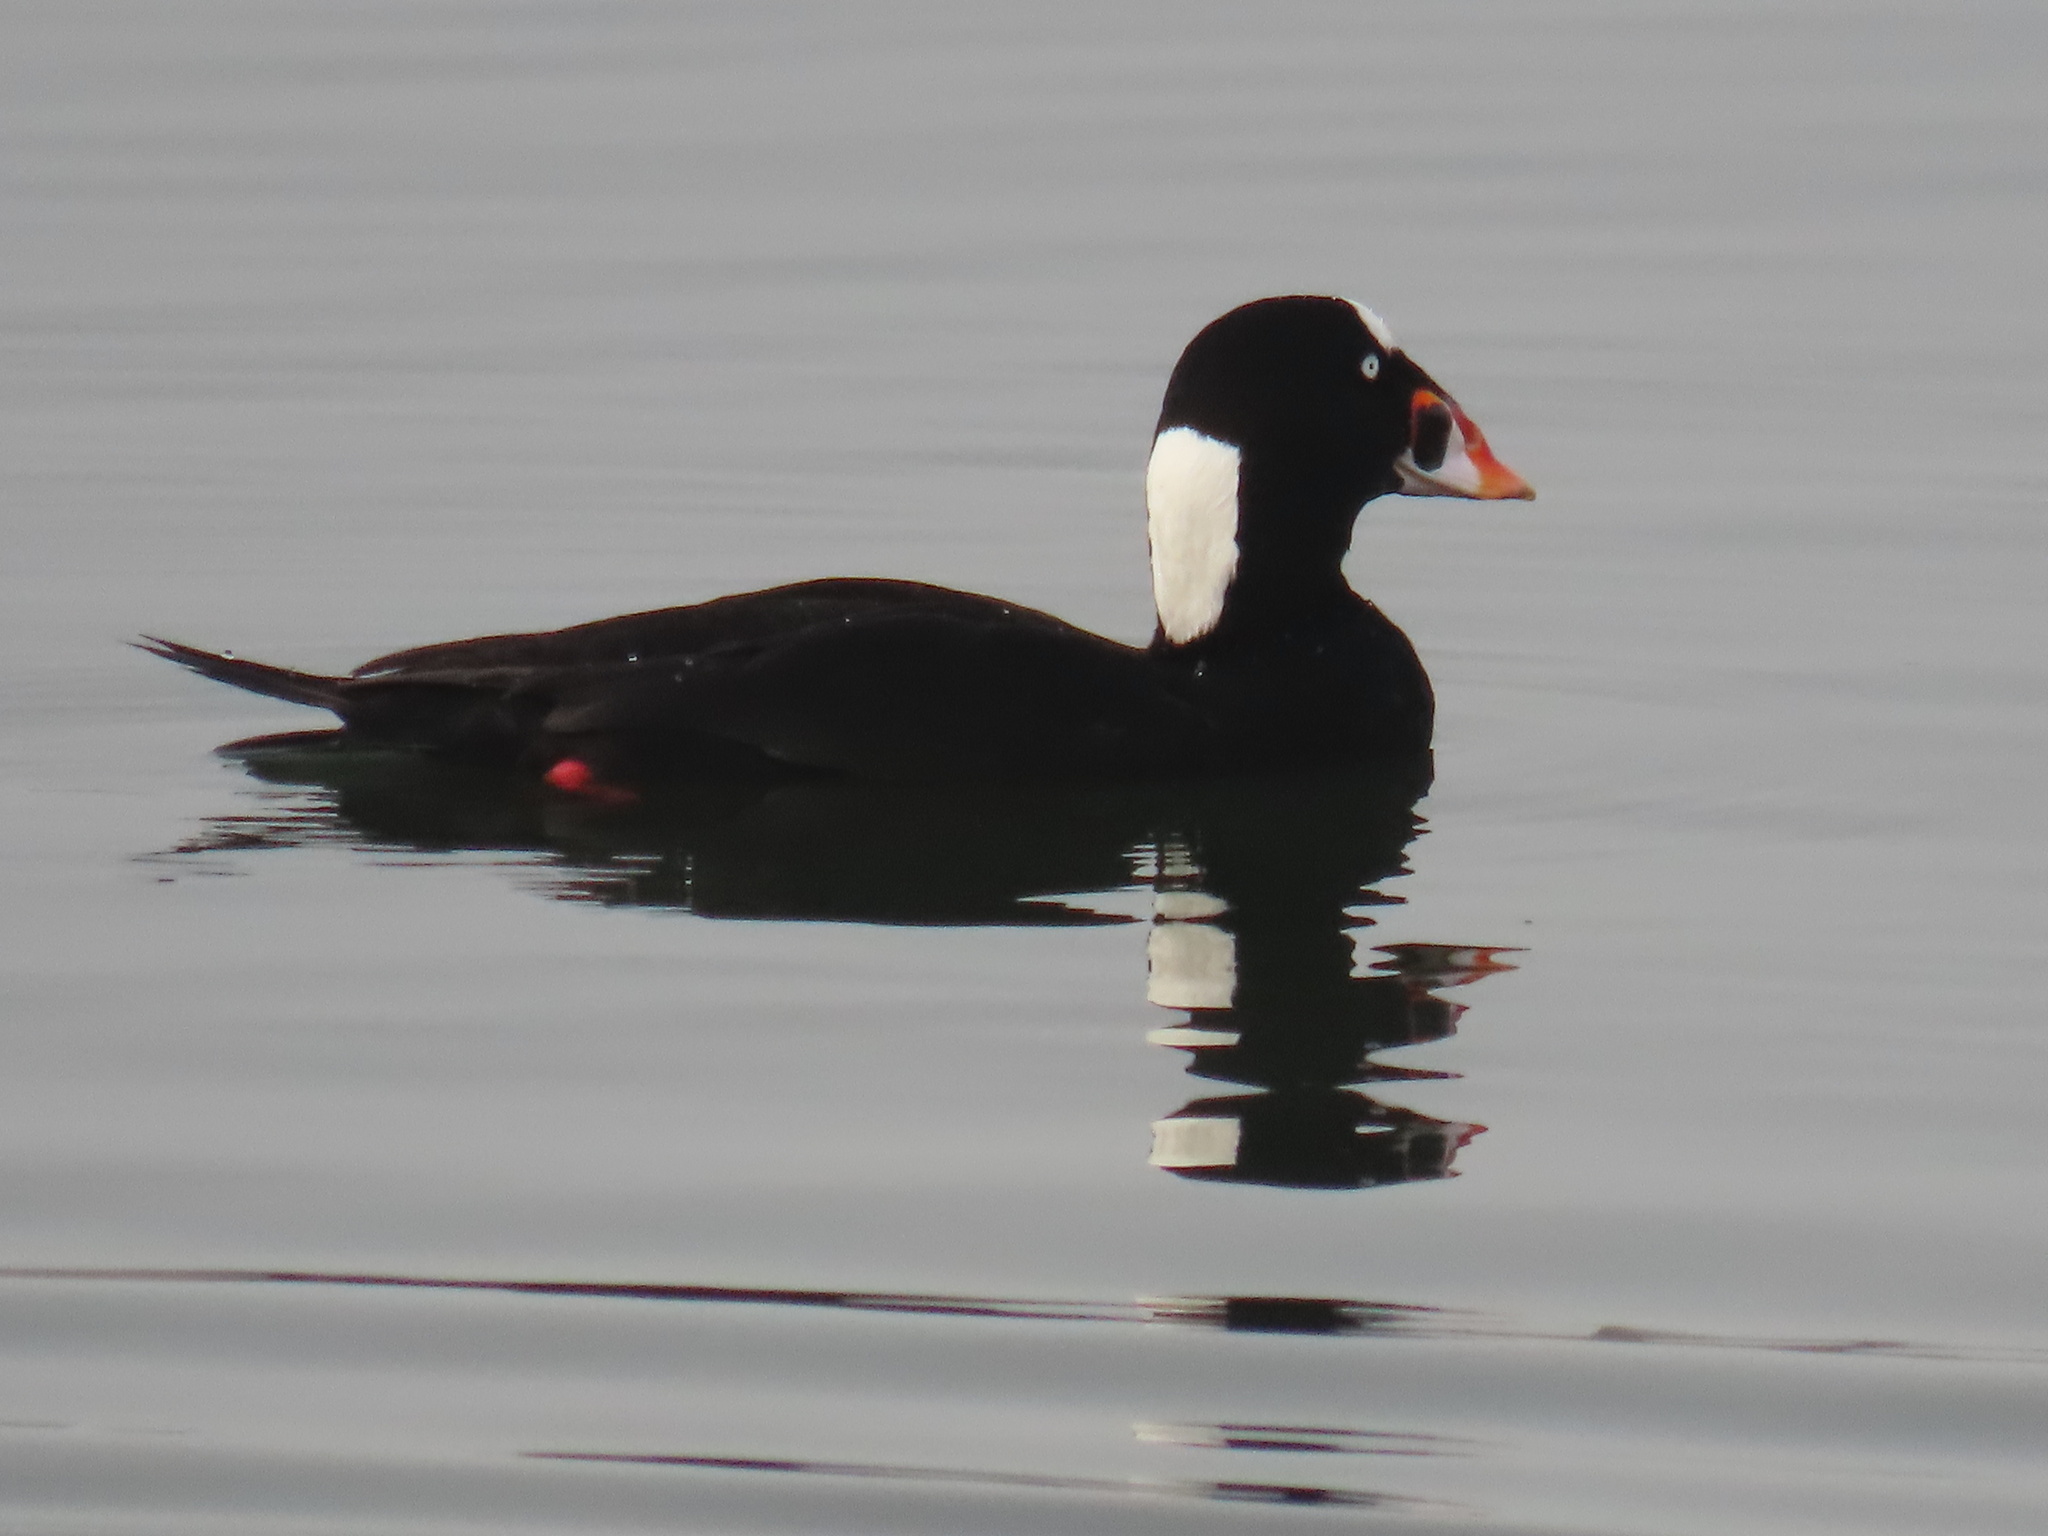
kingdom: Animalia
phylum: Chordata
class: Aves
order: Anseriformes
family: Anatidae
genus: Melanitta
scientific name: Melanitta perspicillata
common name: Surf scoter
